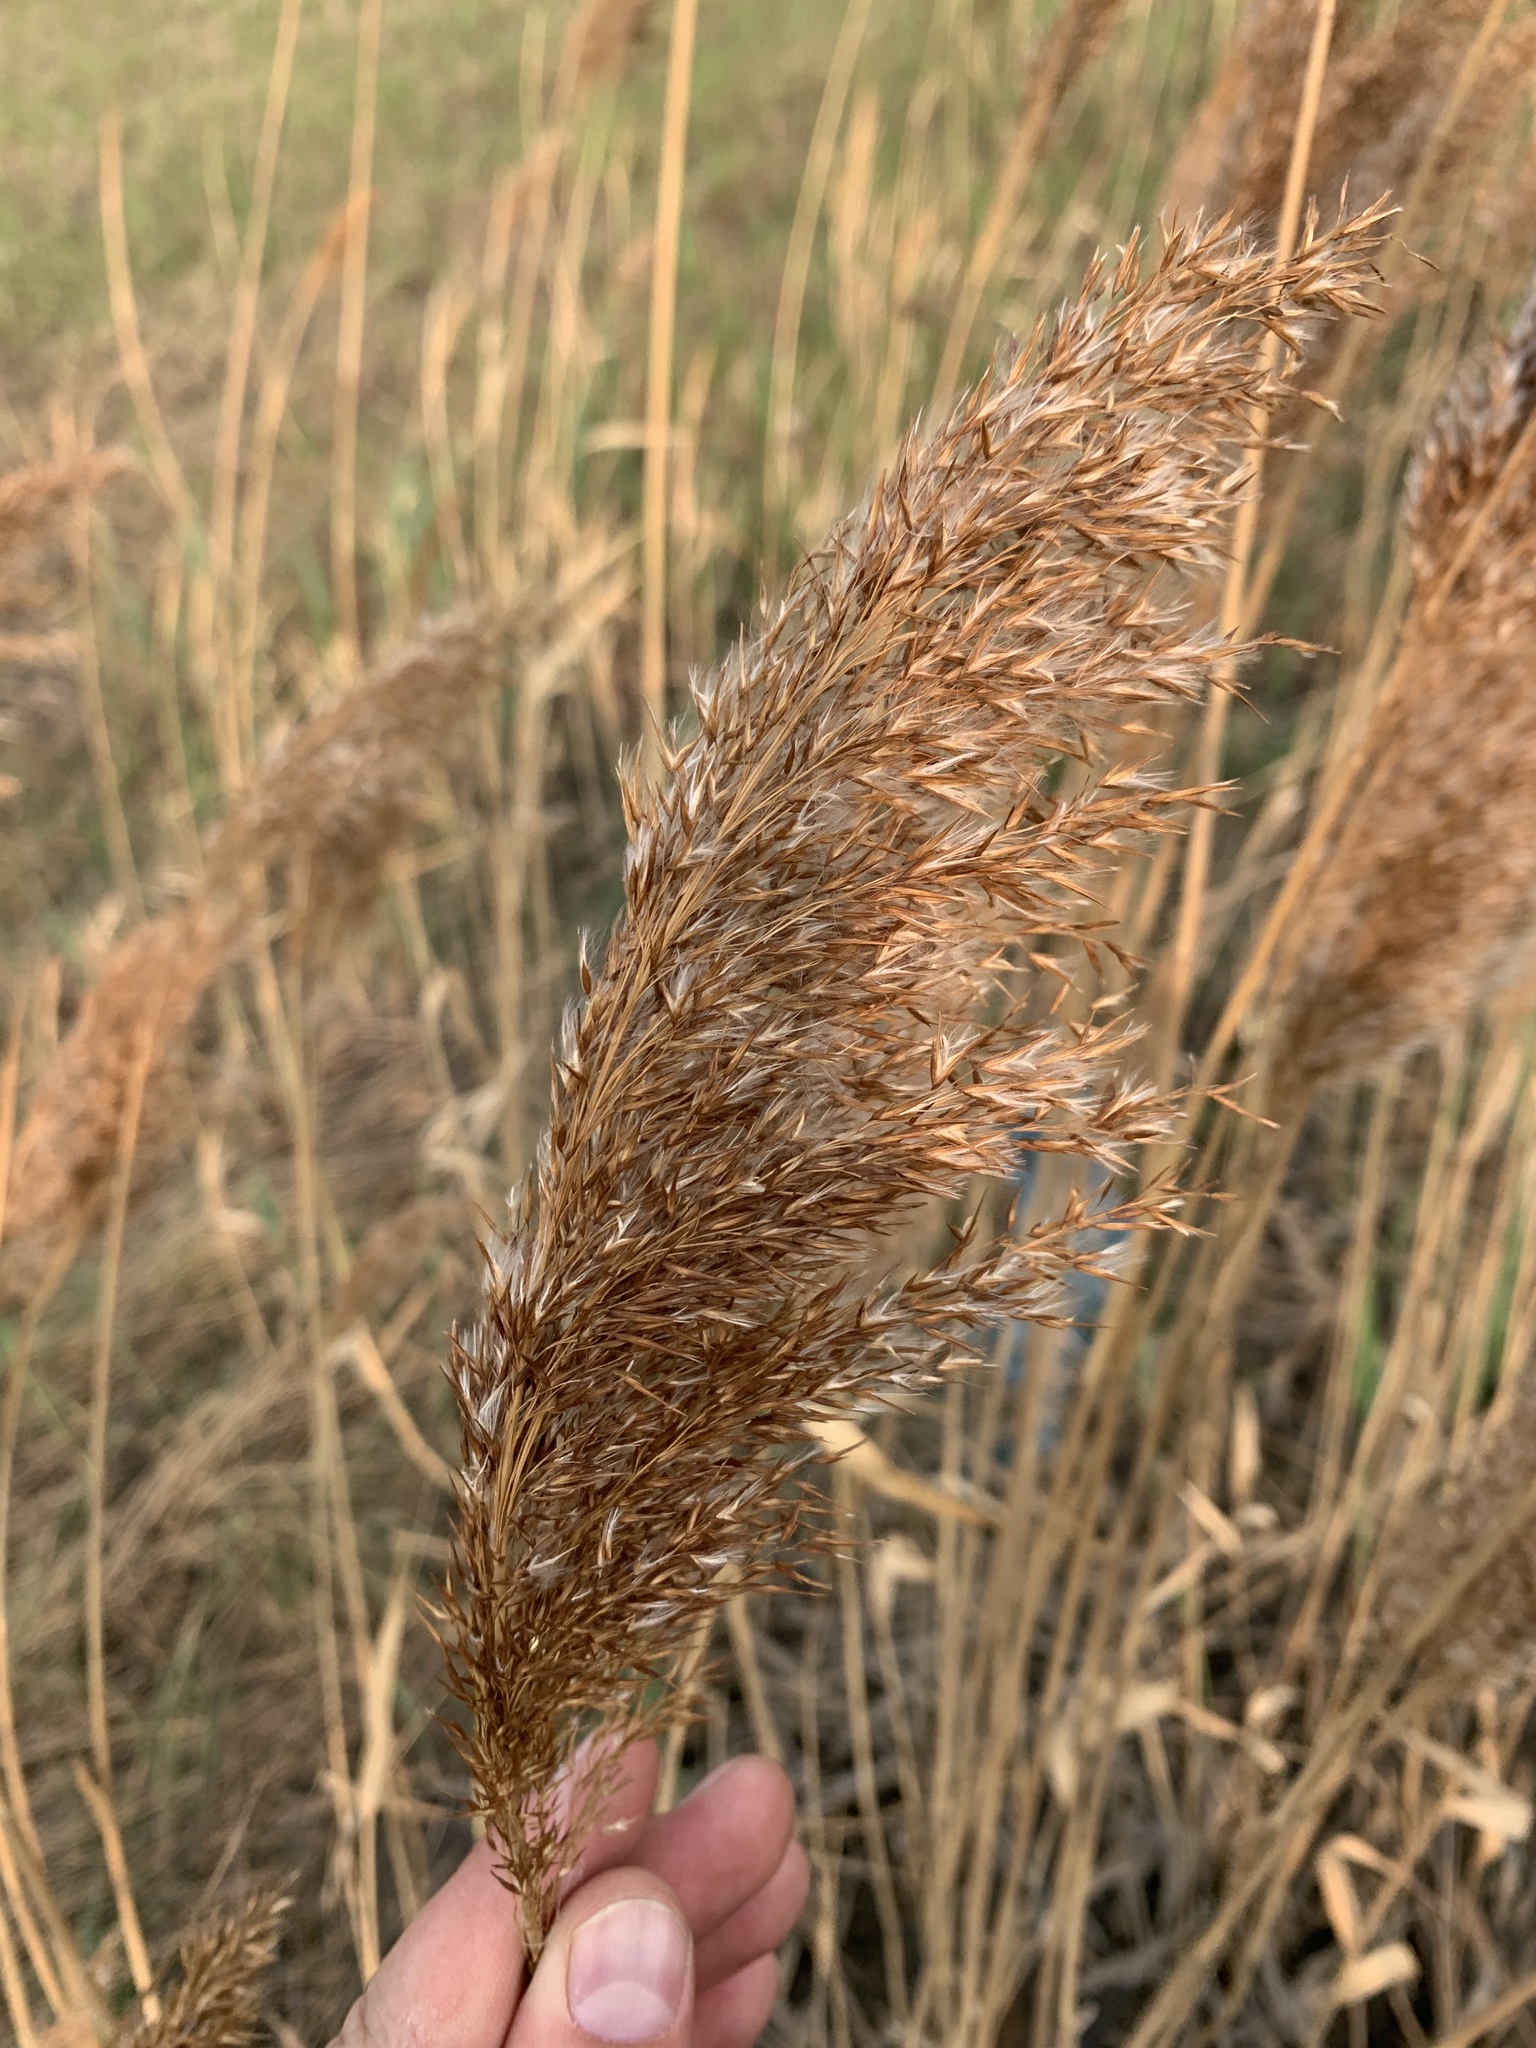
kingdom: Plantae
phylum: Tracheophyta
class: Liliopsida
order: Poales
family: Poaceae
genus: Phragmites
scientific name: Phragmites australis
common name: Common reed
